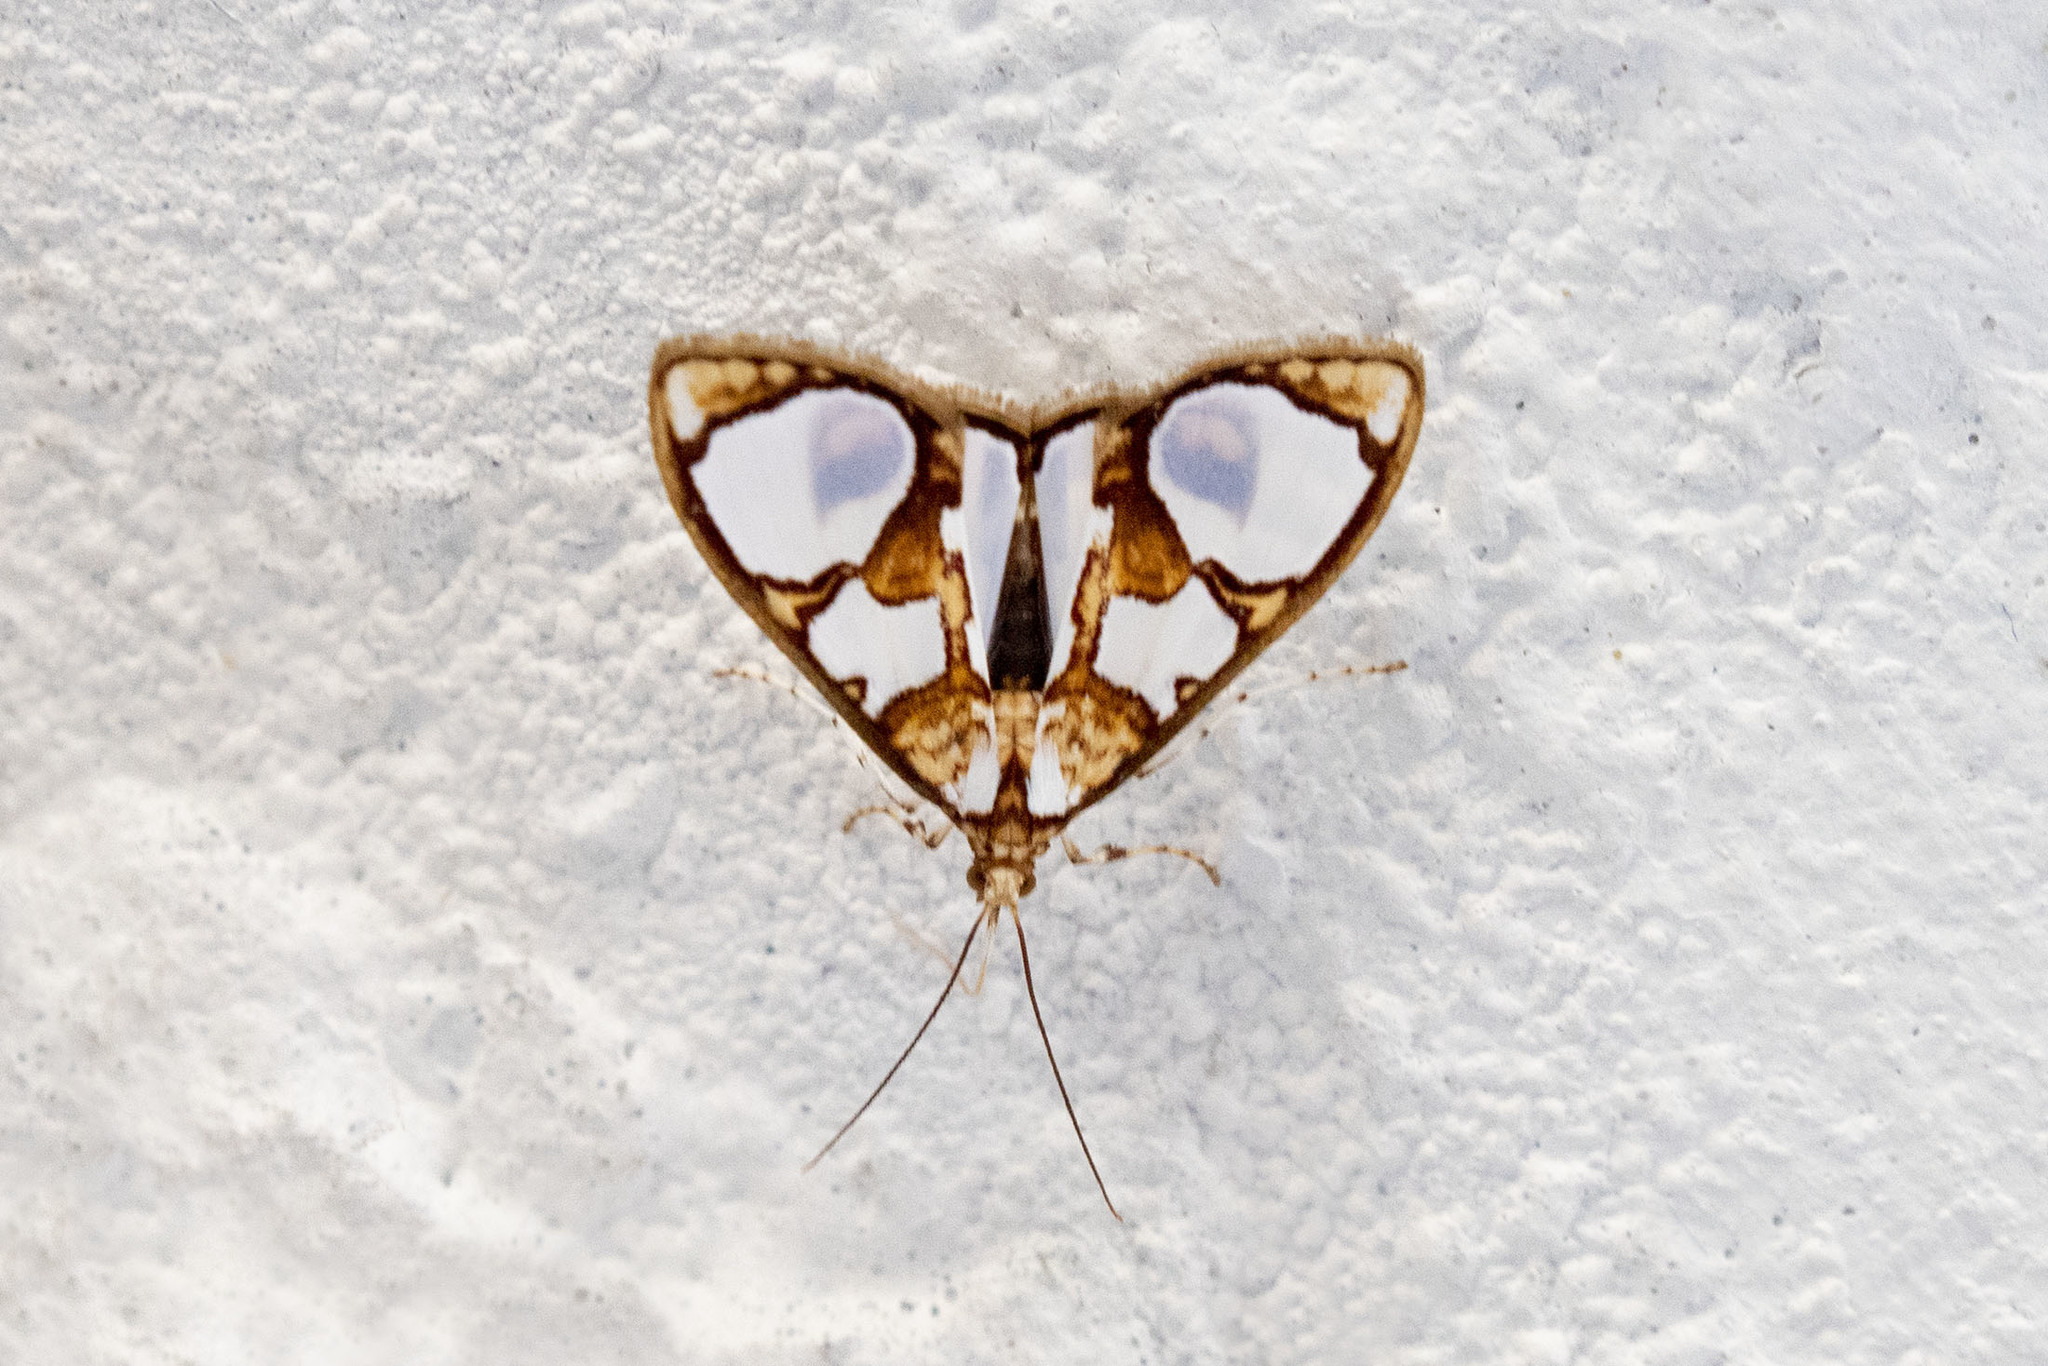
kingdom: Animalia
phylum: Arthropoda
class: Insecta
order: Lepidoptera
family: Crambidae
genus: Glyphodes
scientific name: Glyphodes grandisalis
